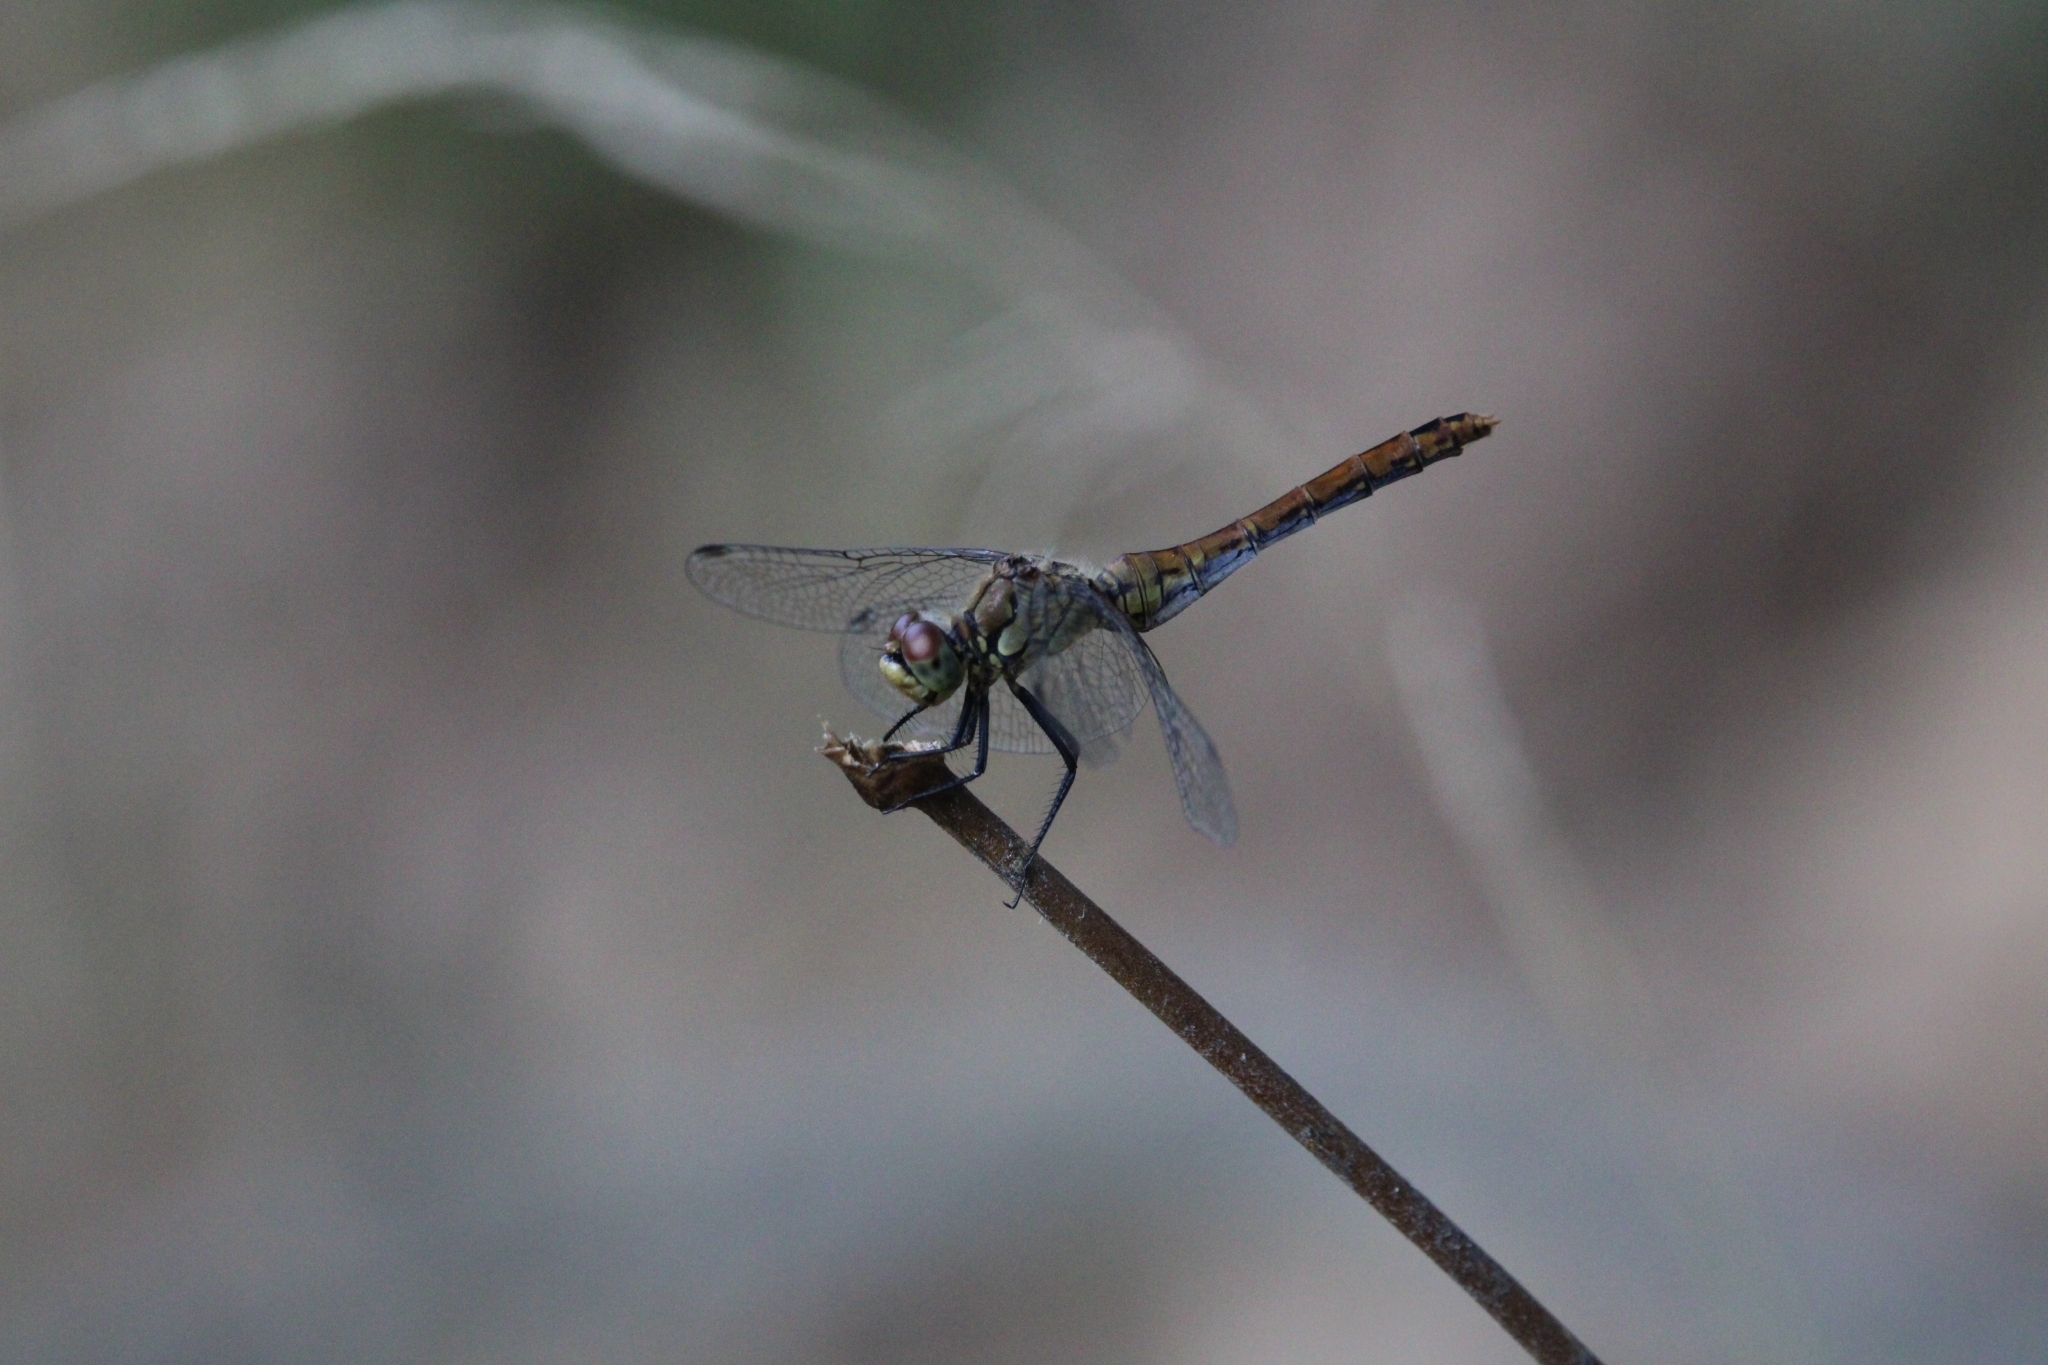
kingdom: Animalia
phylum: Arthropoda
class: Insecta
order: Odonata
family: Libellulidae
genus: Sympetrum
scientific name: Sympetrum sanguineum
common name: Ruddy darter
